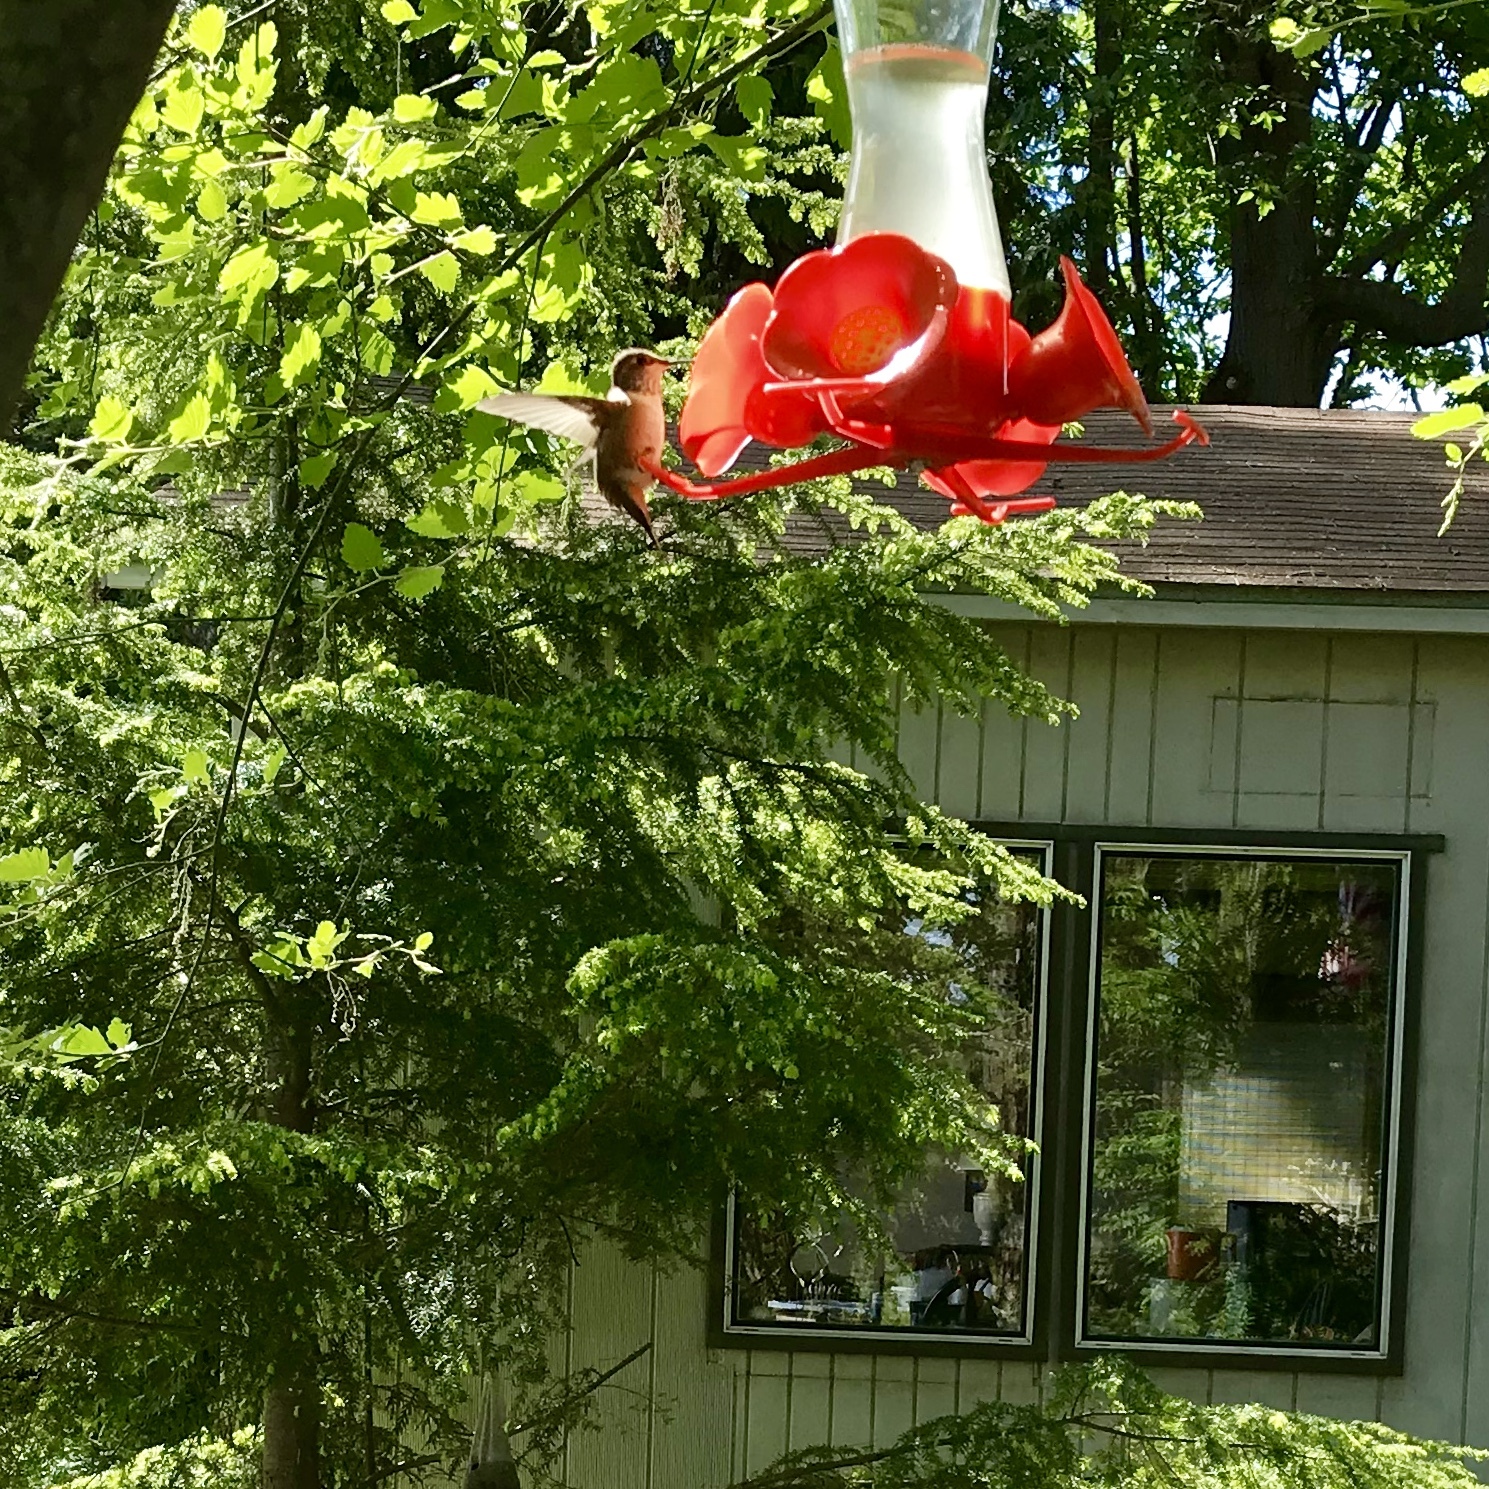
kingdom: Animalia
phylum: Chordata
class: Aves
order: Apodiformes
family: Trochilidae
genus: Selasphorus
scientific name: Selasphorus rufus
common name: Rufous hummingbird
